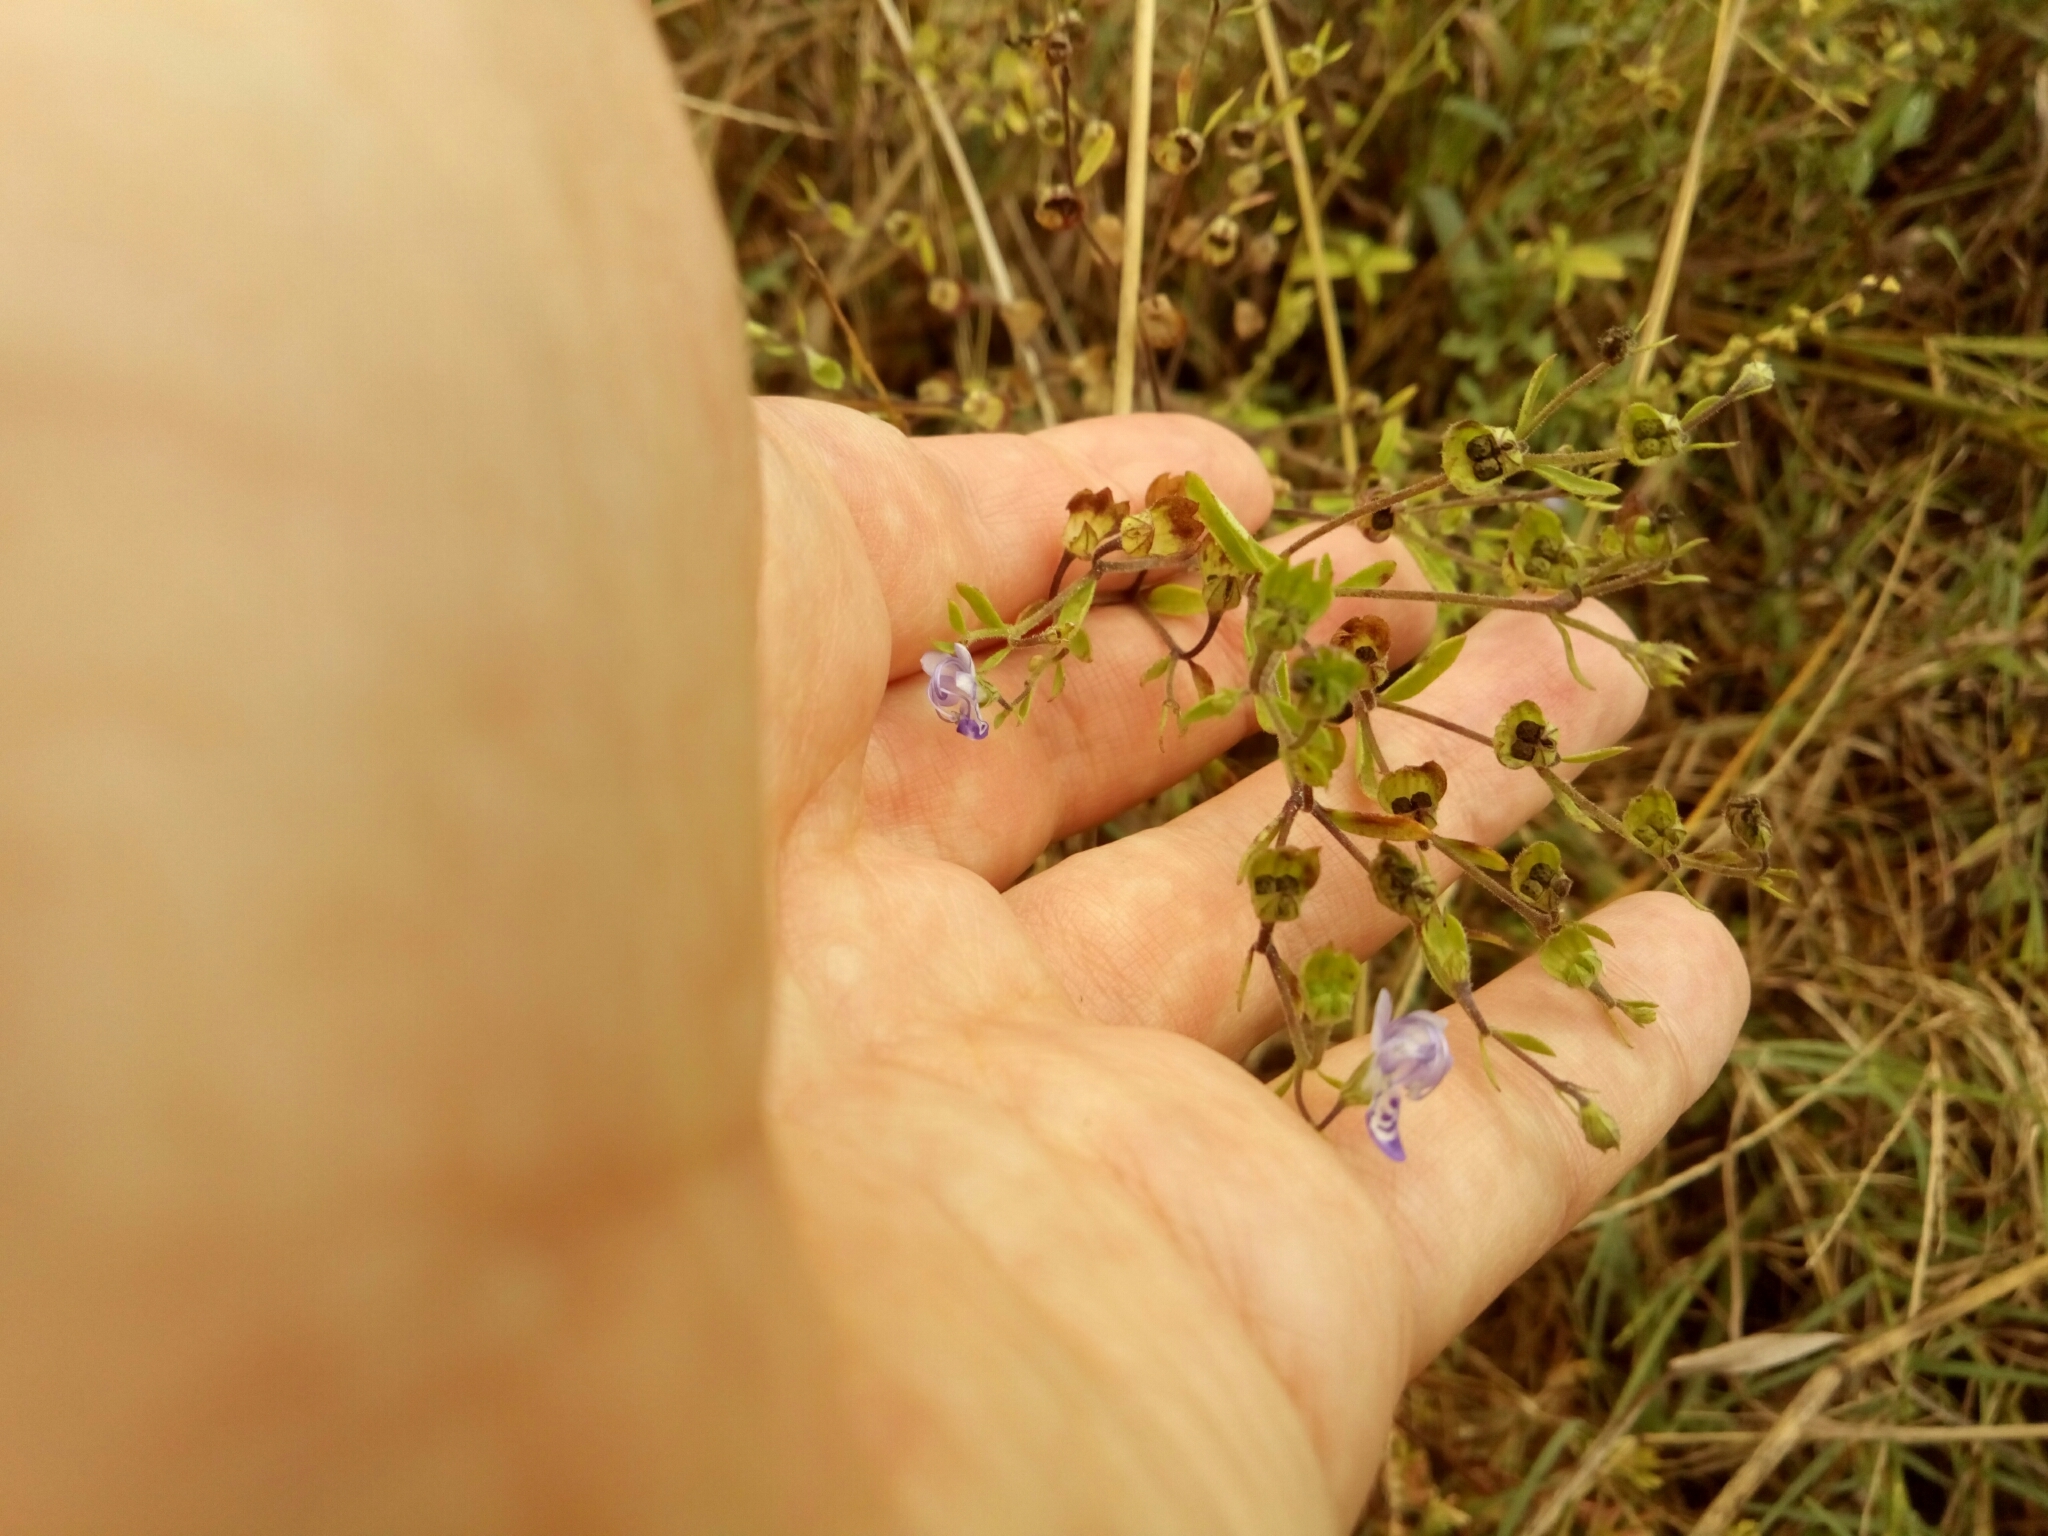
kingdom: Plantae
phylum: Tracheophyta
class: Magnoliopsida
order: Lamiales
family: Lamiaceae
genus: Trichostema
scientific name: Trichostema dichotomum
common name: Bastard pennyroyal
